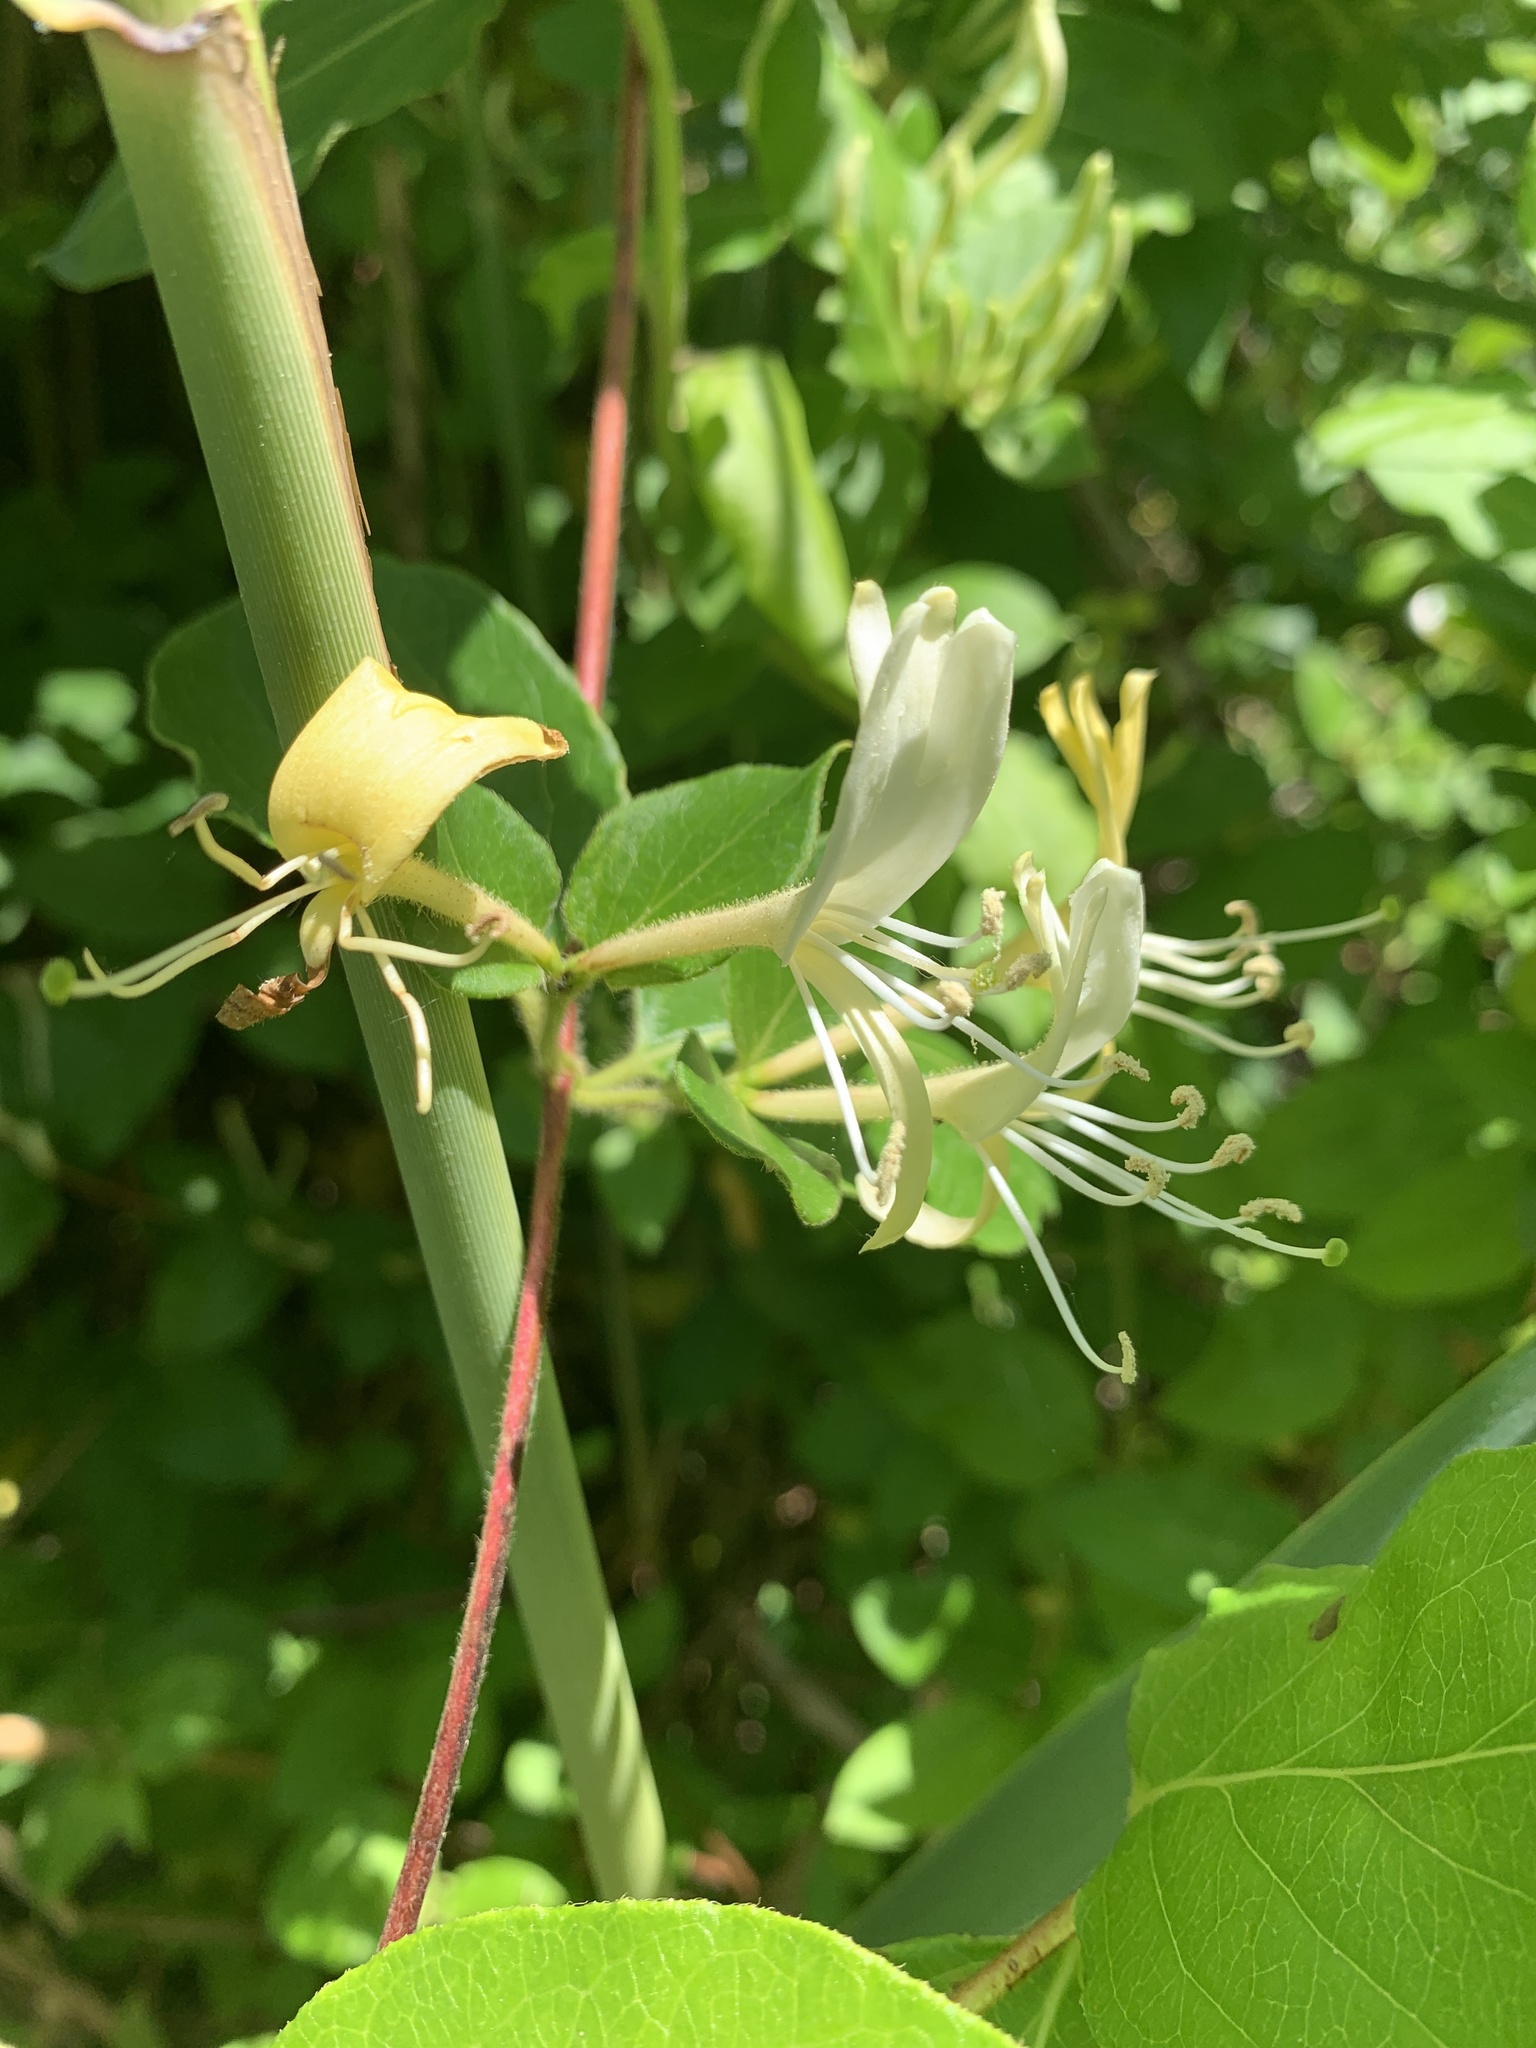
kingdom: Plantae
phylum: Tracheophyta
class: Magnoliopsida
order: Dipsacales
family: Caprifoliaceae
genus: Lonicera
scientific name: Lonicera japonica
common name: Japanese honeysuckle
